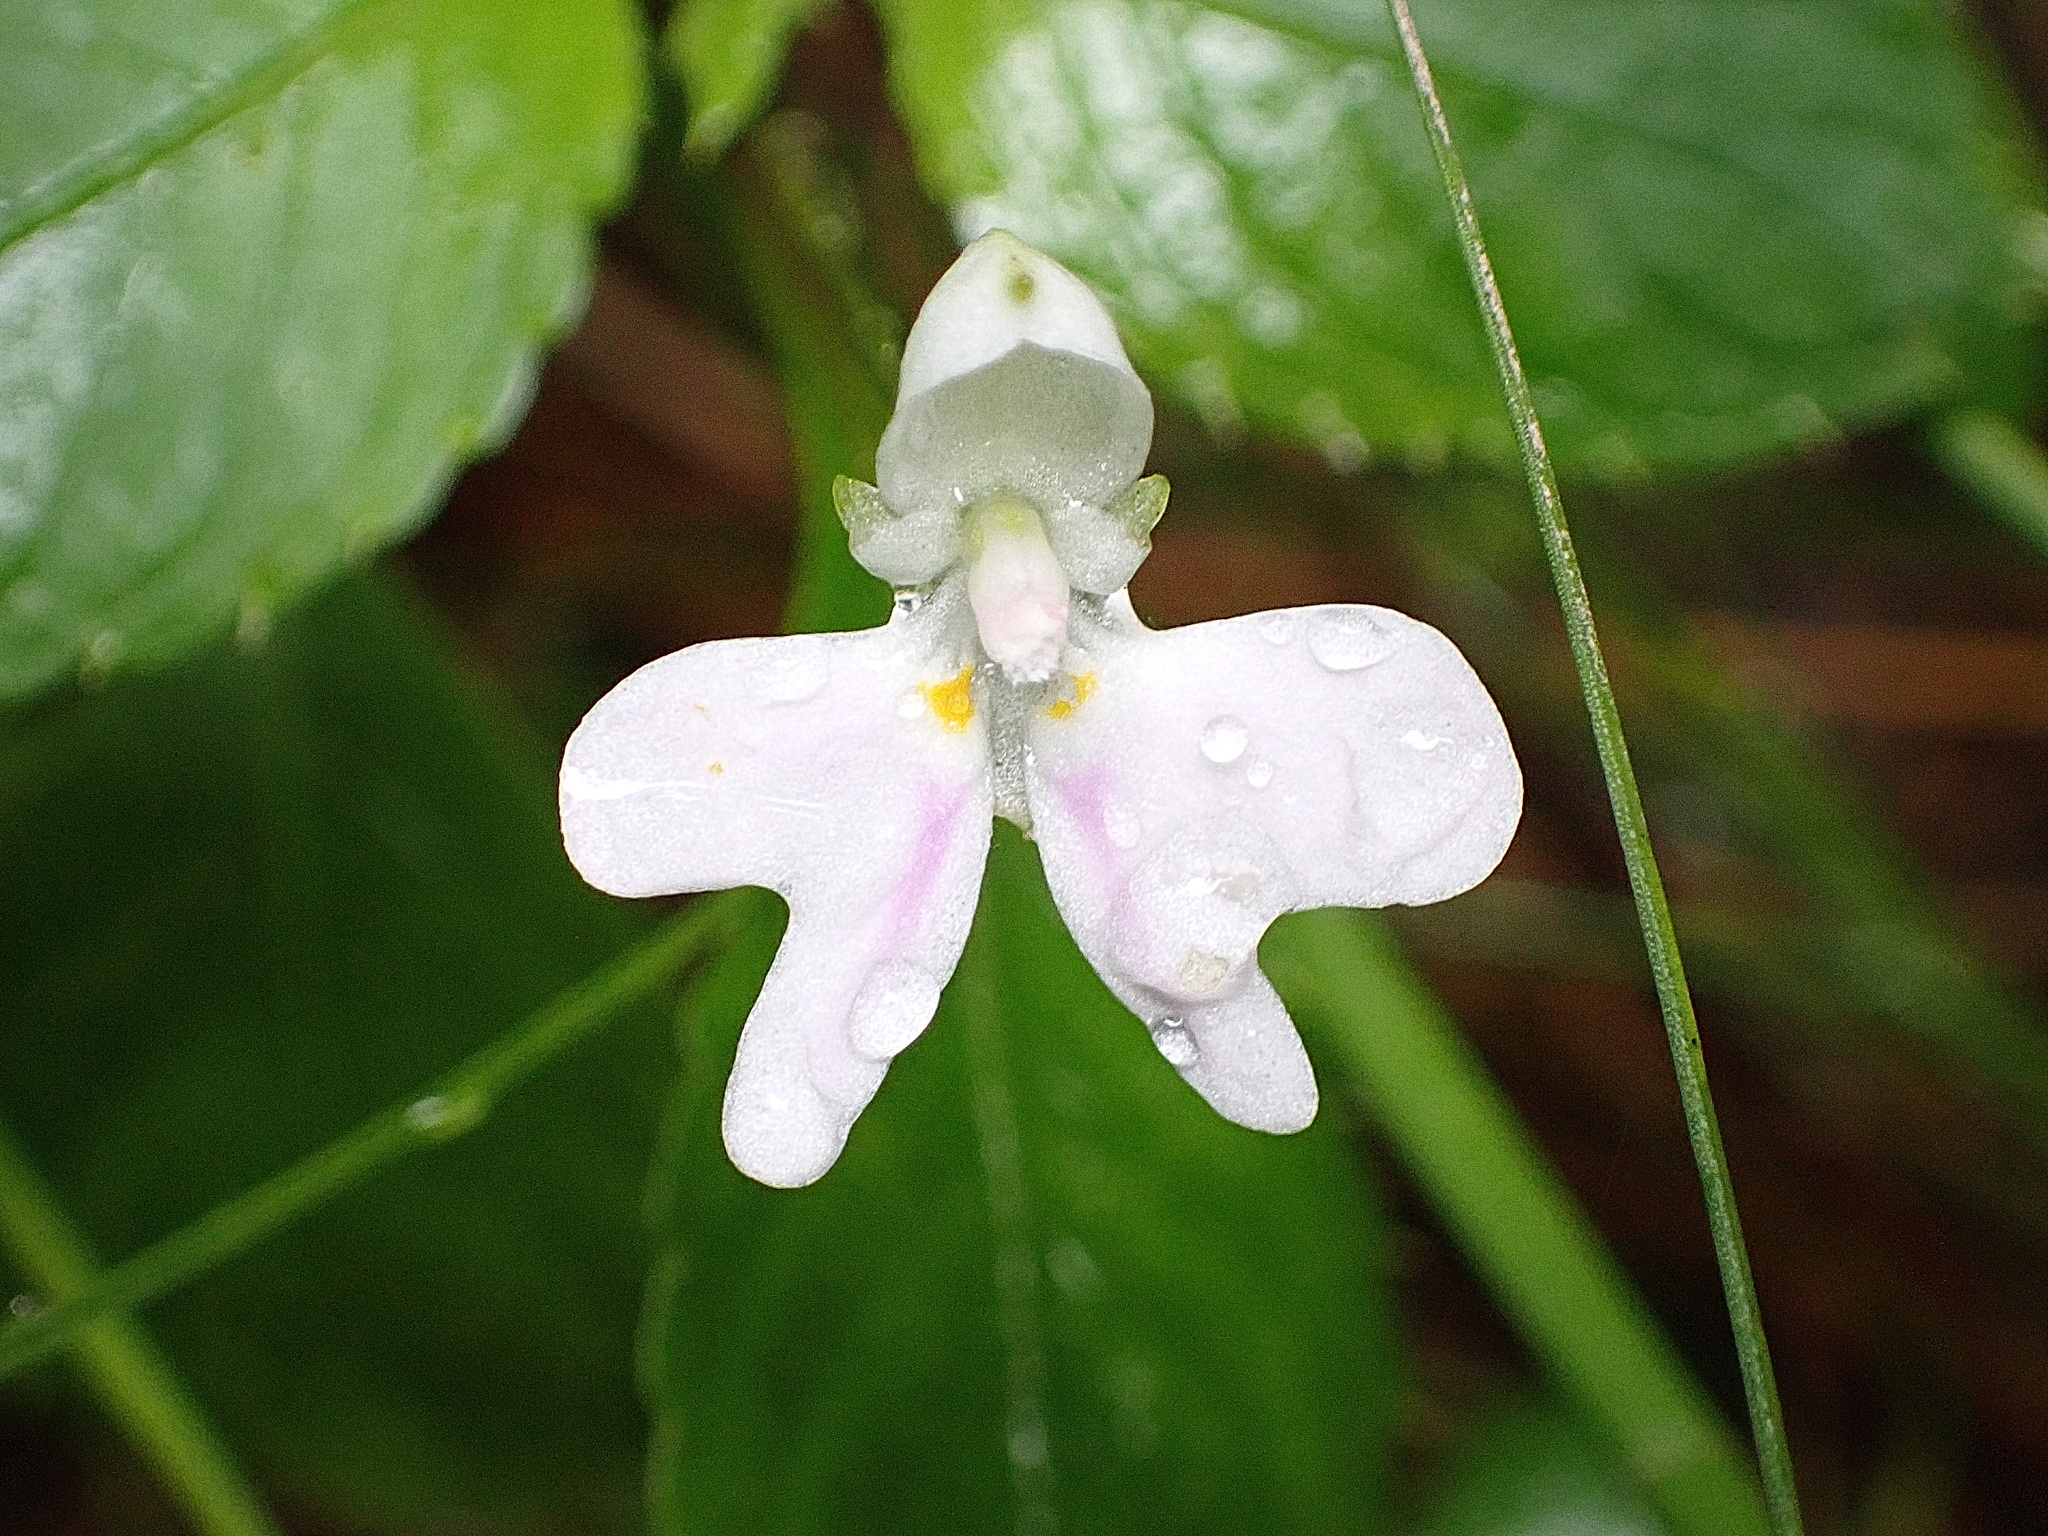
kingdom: Plantae
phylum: Tracheophyta
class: Magnoliopsida
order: Ericales
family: Balsaminaceae
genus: Impatiens
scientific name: Impatiens hochstetteri
